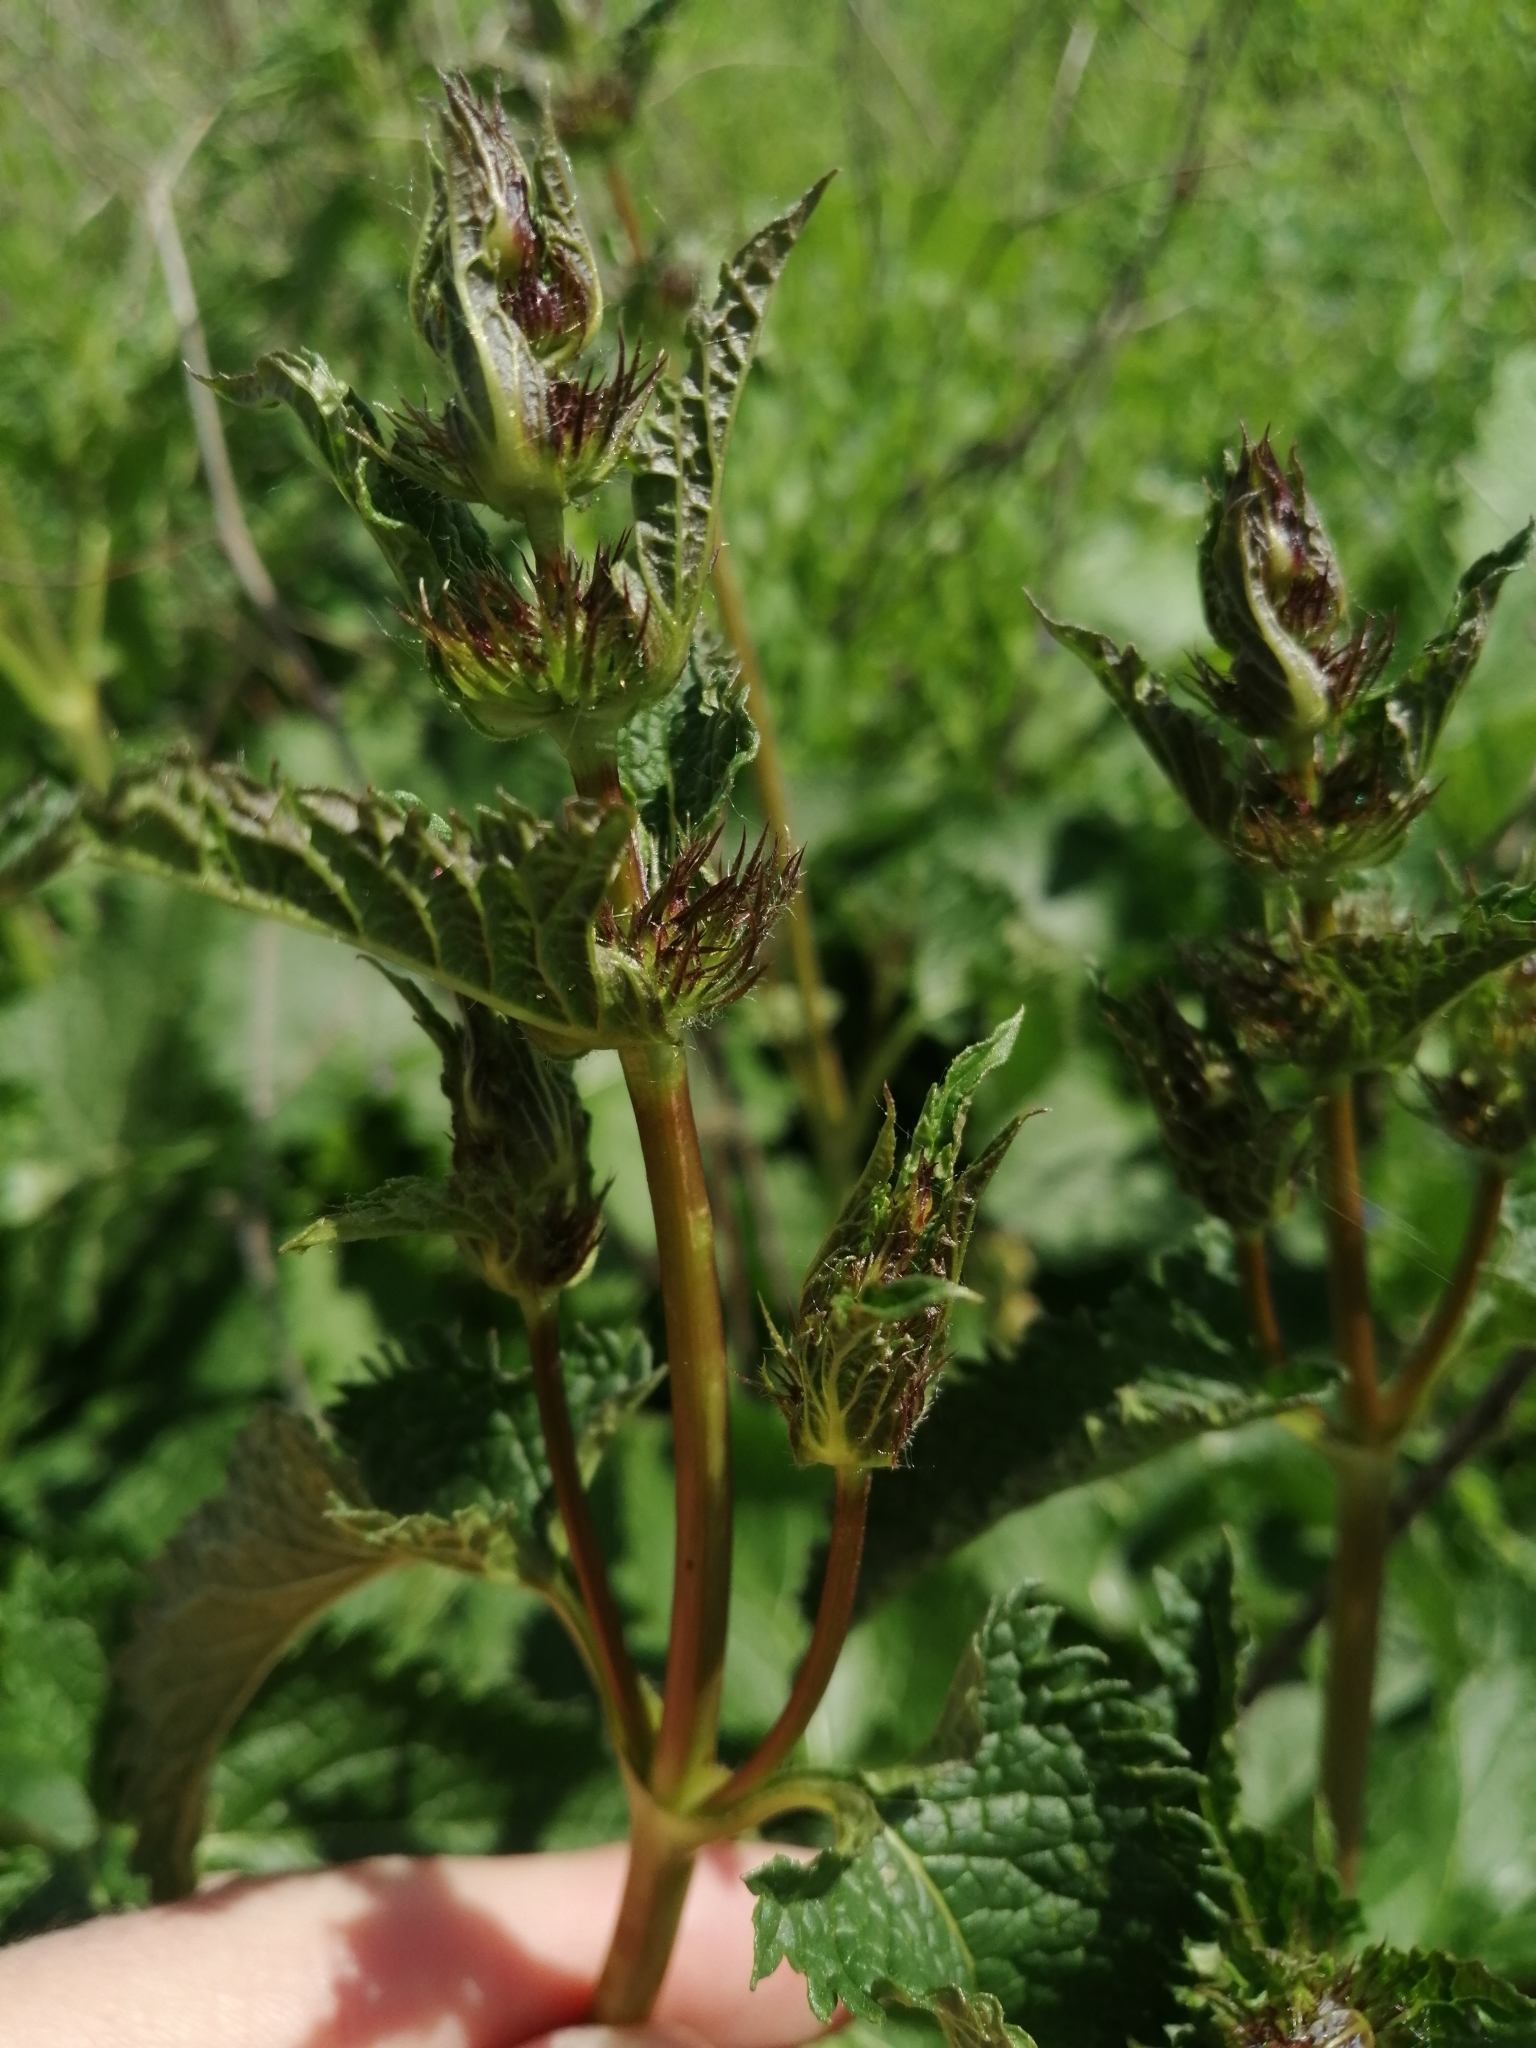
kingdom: Plantae
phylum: Tracheophyta
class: Magnoliopsida
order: Lamiales
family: Lamiaceae
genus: Phlomoides
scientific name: Phlomoides tuberosa
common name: Tuberous jerusalem sage
